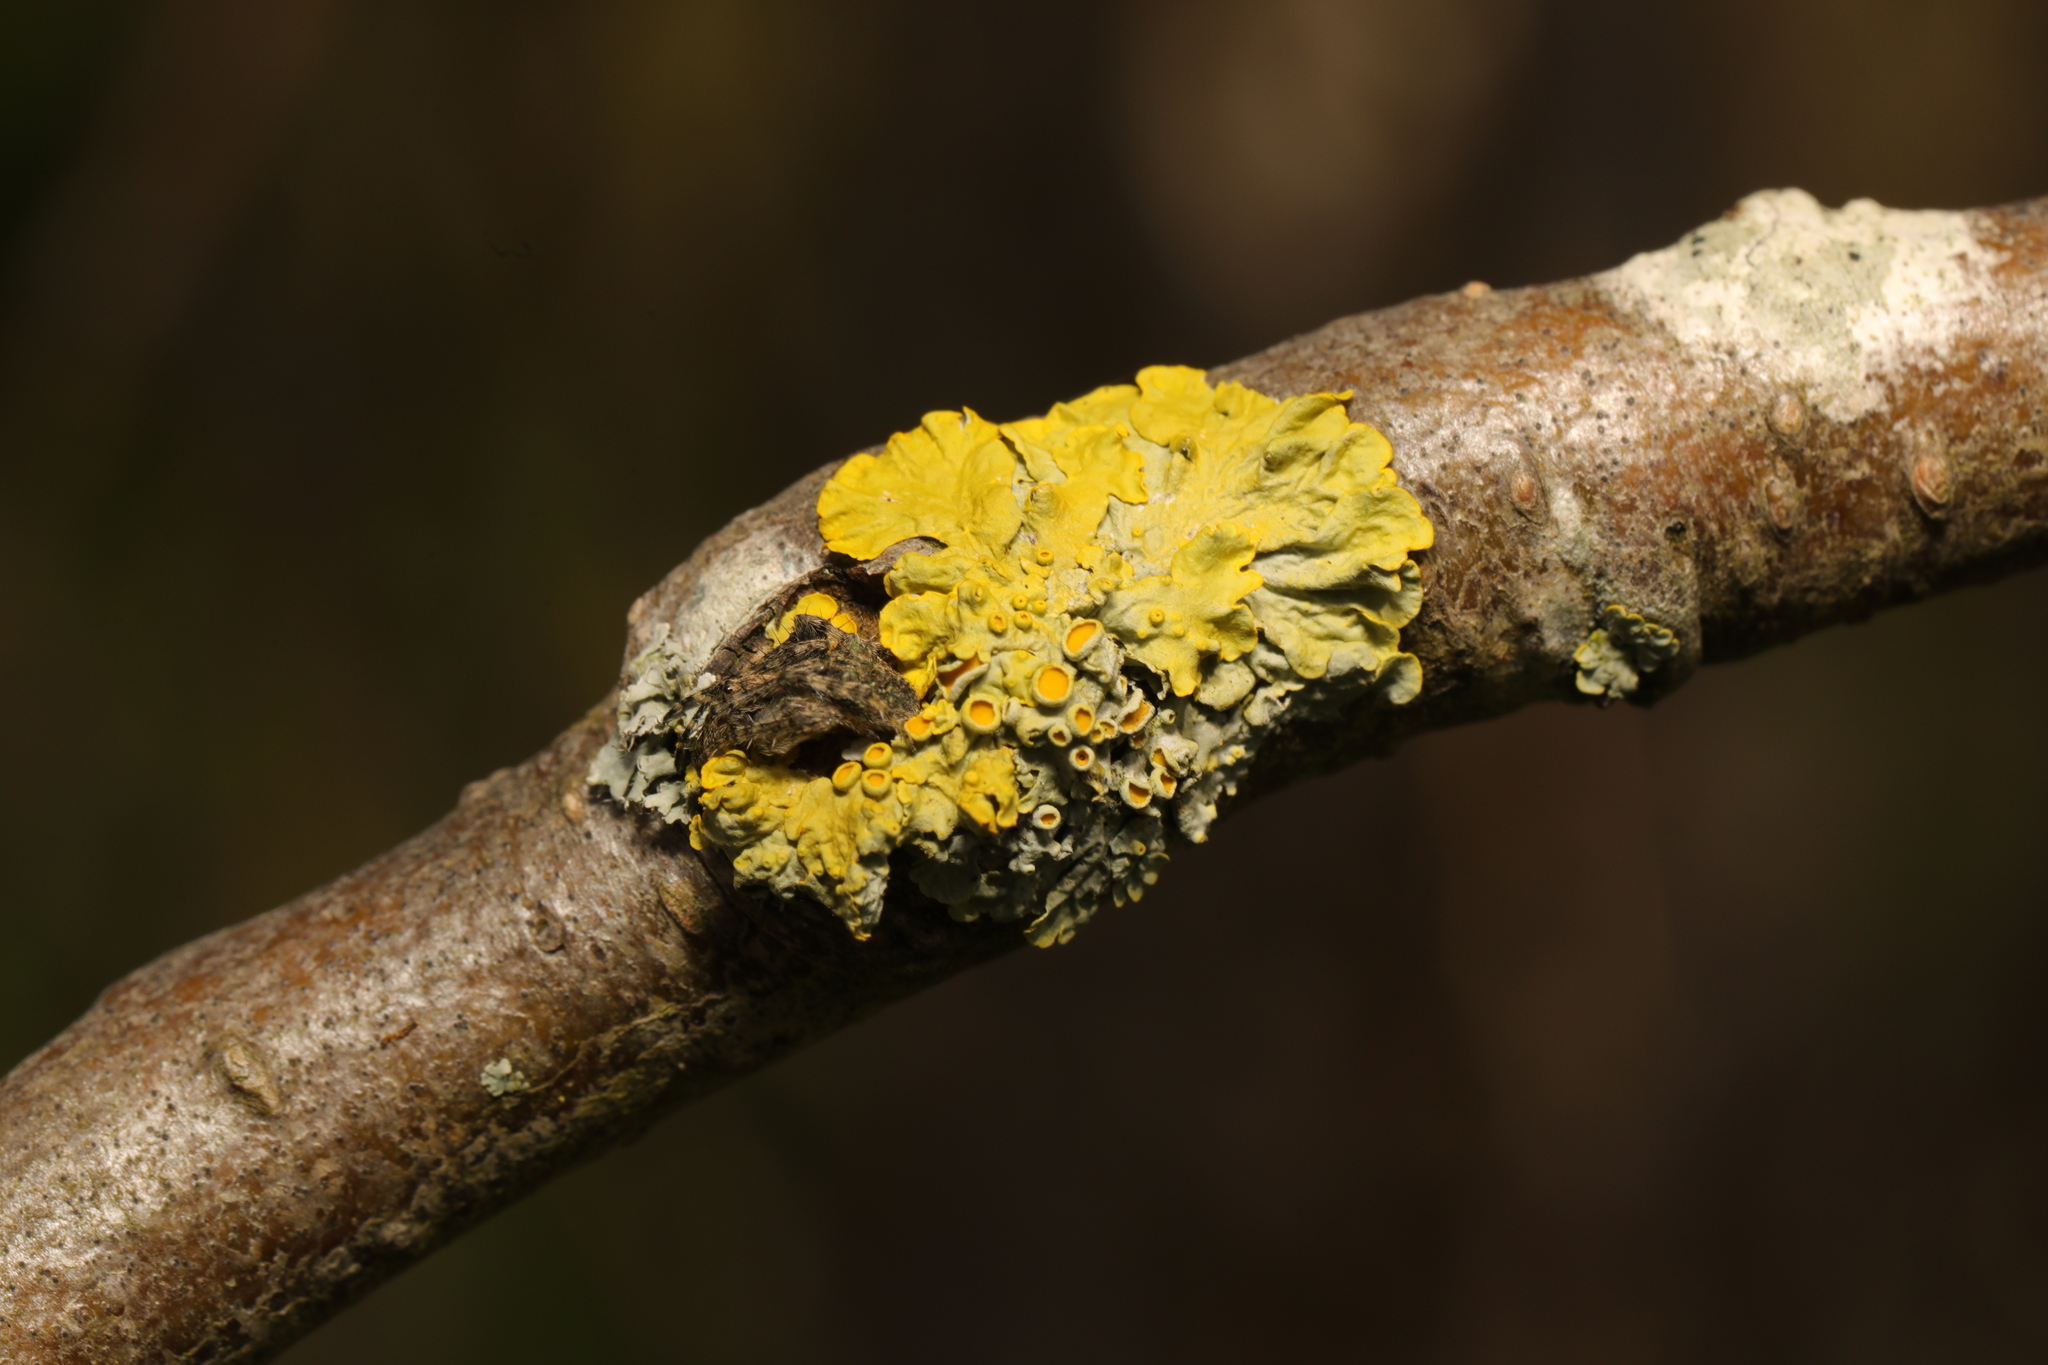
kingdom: Fungi
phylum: Ascomycota
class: Lecanoromycetes
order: Teloschistales
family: Teloschistaceae
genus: Xanthoria
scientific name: Xanthoria parietina
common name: Common orange lichen
